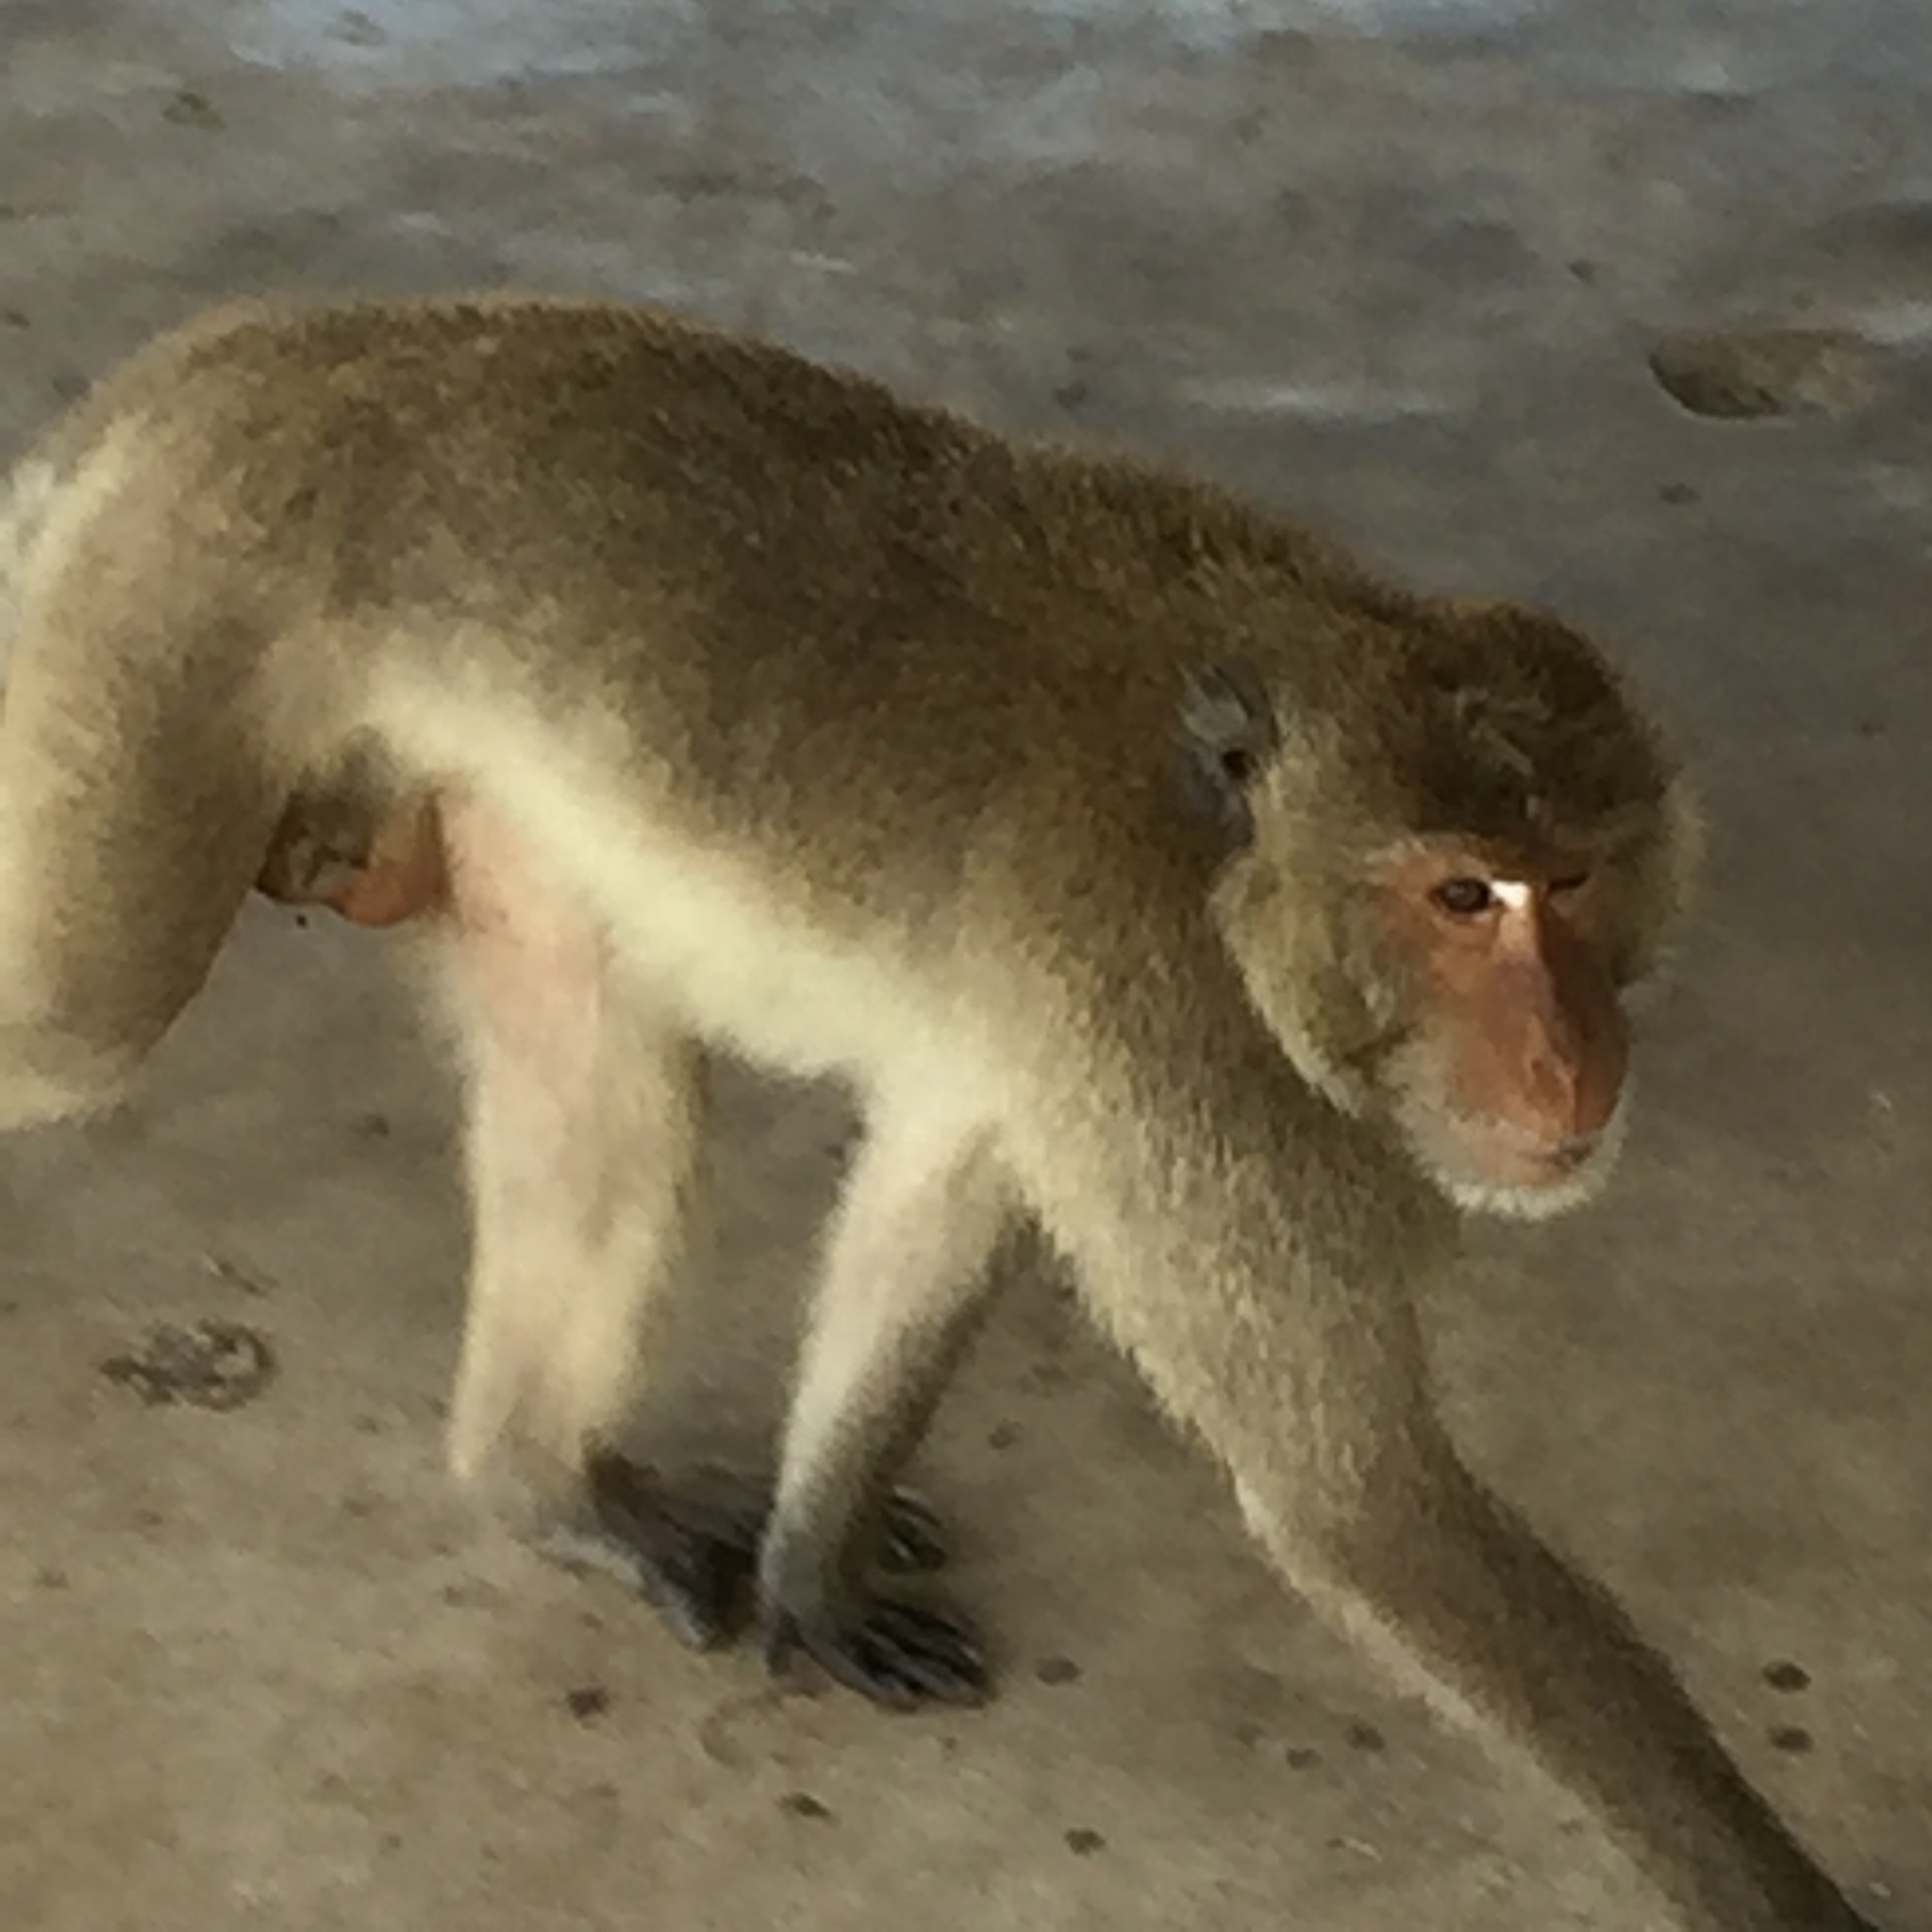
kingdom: Animalia
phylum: Chordata
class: Mammalia
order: Primates
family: Cercopithecidae
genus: Macaca
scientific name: Macaca fascicularis
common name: Crab-eating macaque
